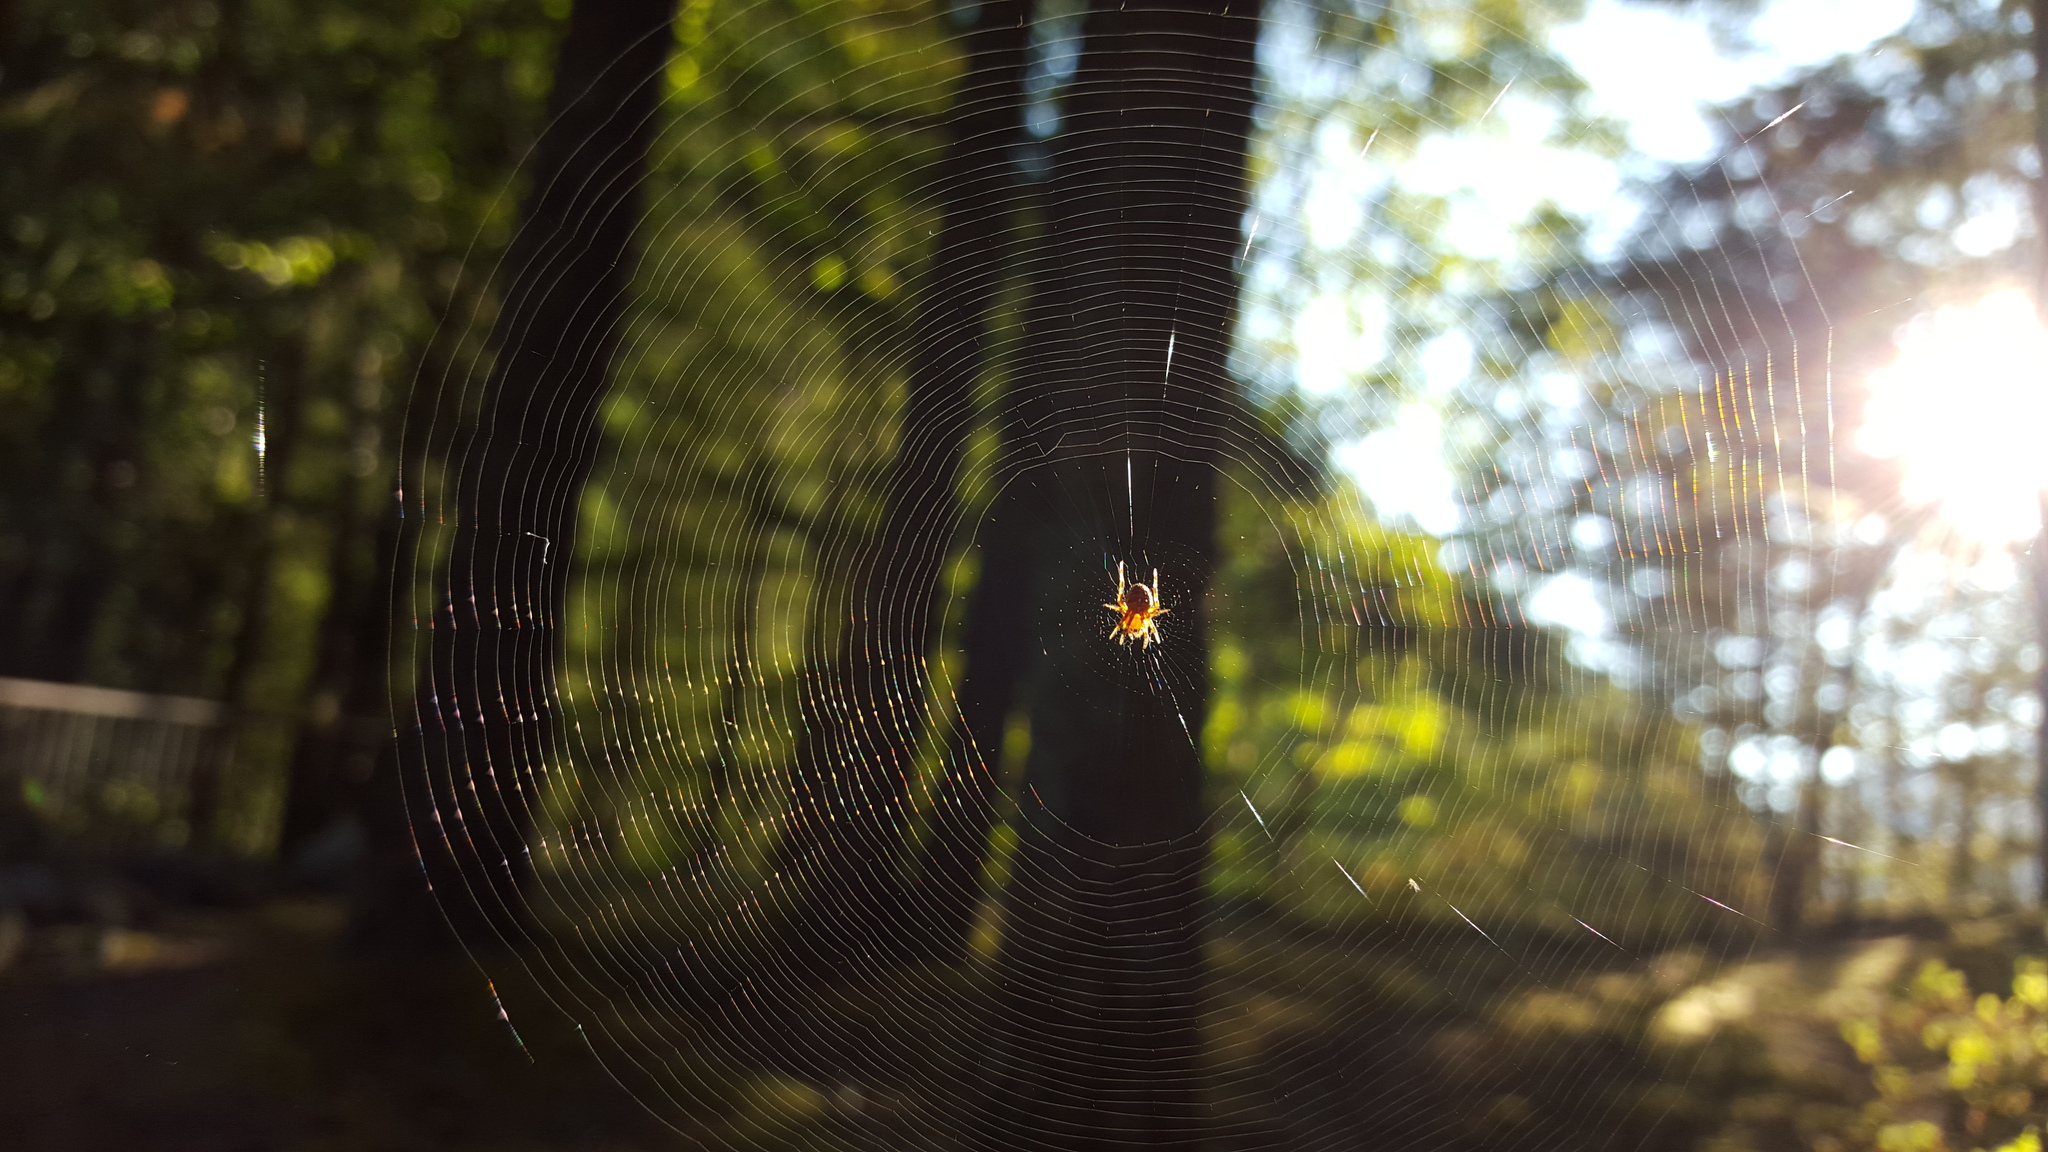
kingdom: Animalia
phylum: Arthropoda
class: Arachnida
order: Araneae
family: Araneidae
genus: Araneus
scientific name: Araneus diadematus
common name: Cross orbweaver
